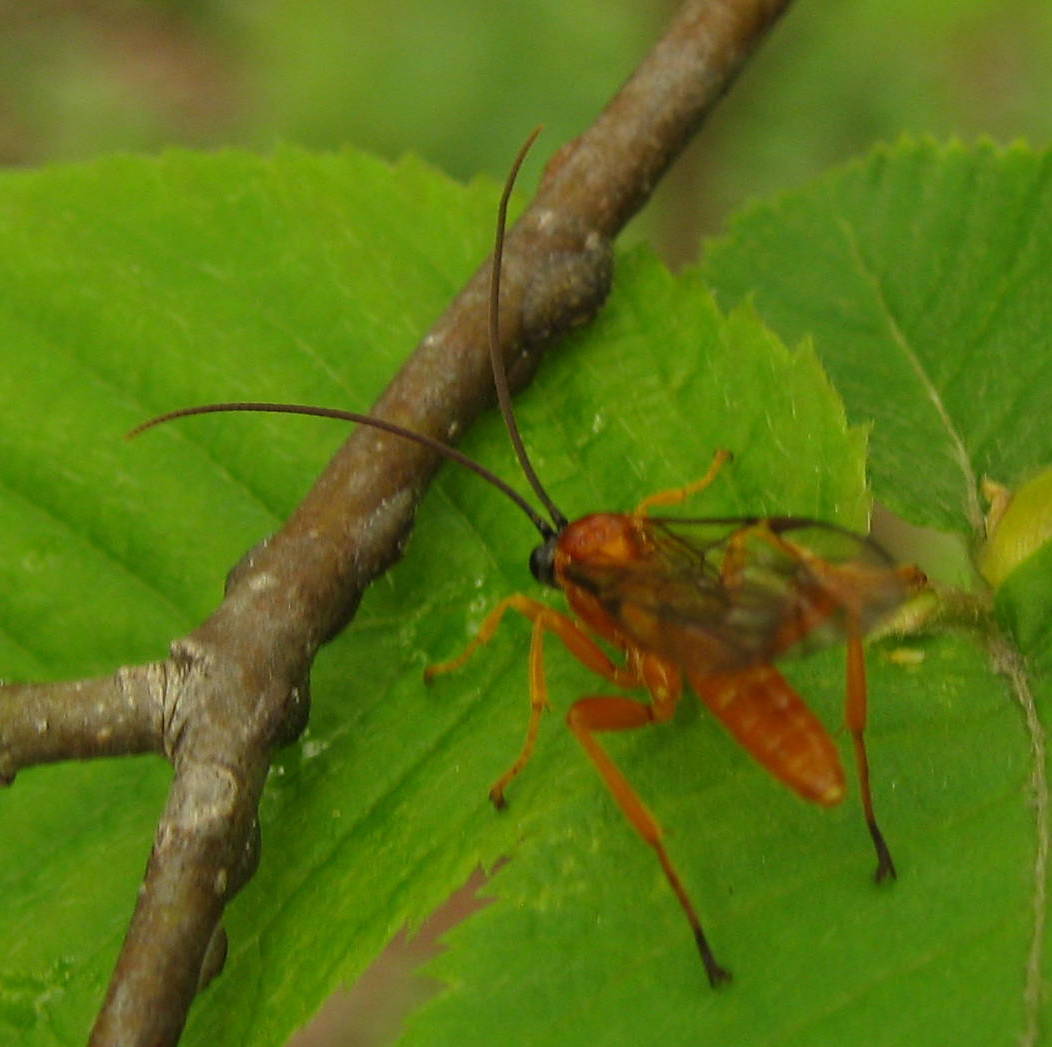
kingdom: Animalia
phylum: Arthropoda
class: Insecta
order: Hymenoptera
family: Ichneumonidae
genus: Theronia
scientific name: Theronia hilaris
